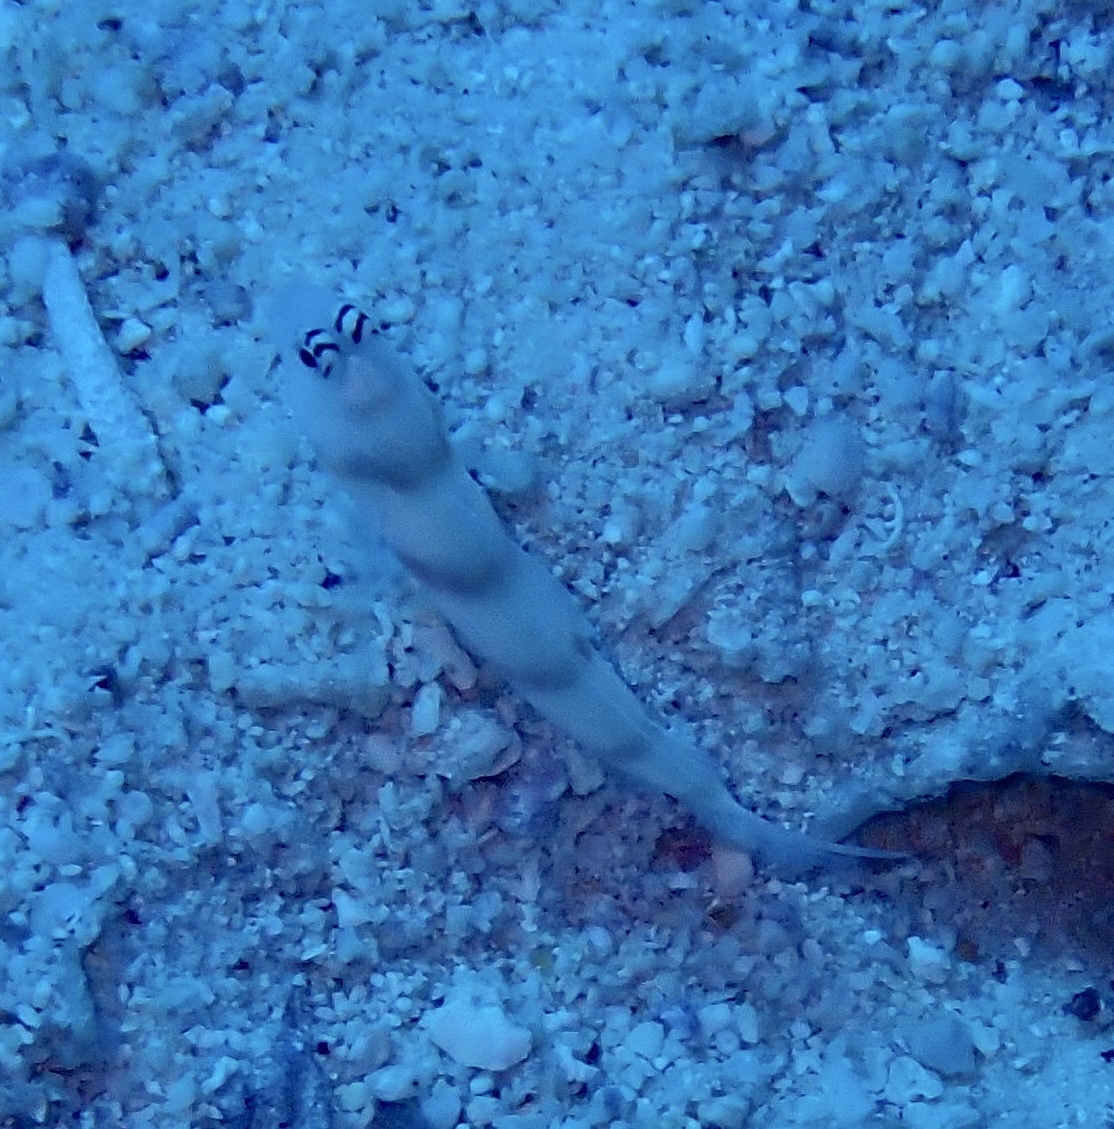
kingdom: Animalia
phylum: Chordata
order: Perciformes
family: Gobiidae
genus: Amblyeleotris
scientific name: Amblyeleotris steinitzi
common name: Steinitz' prawn-goby
